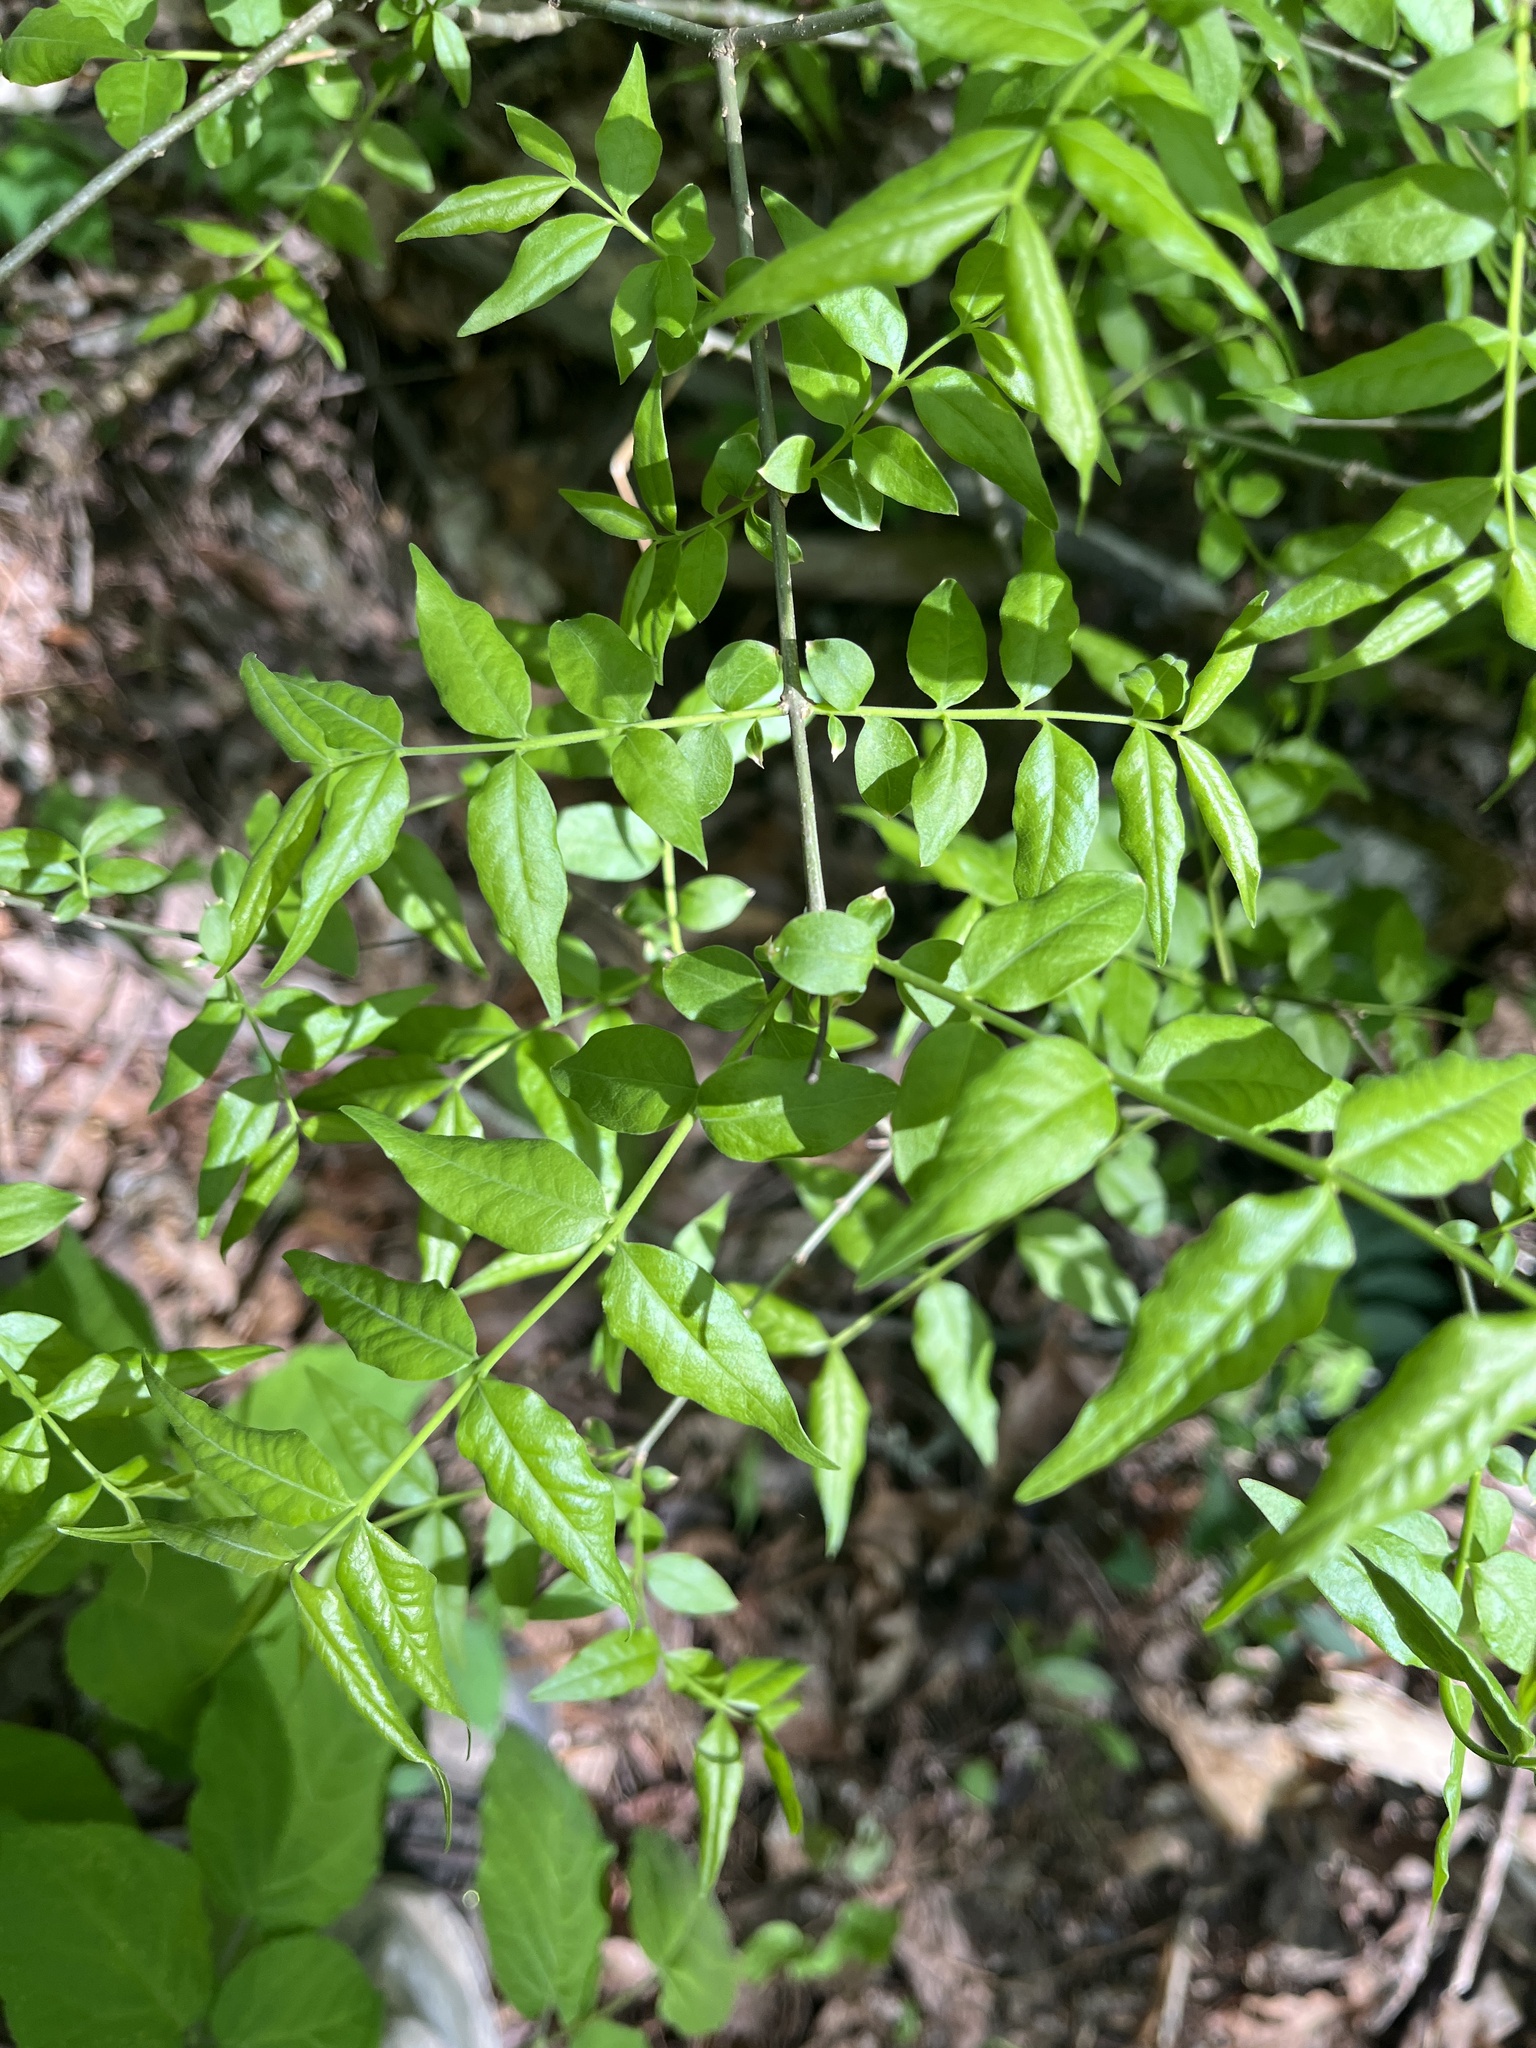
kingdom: Plantae
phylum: Tracheophyta
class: Magnoliopsida
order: Santalales
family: Thesiaceae
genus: Buckleya
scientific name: Buckleya distichophylla
